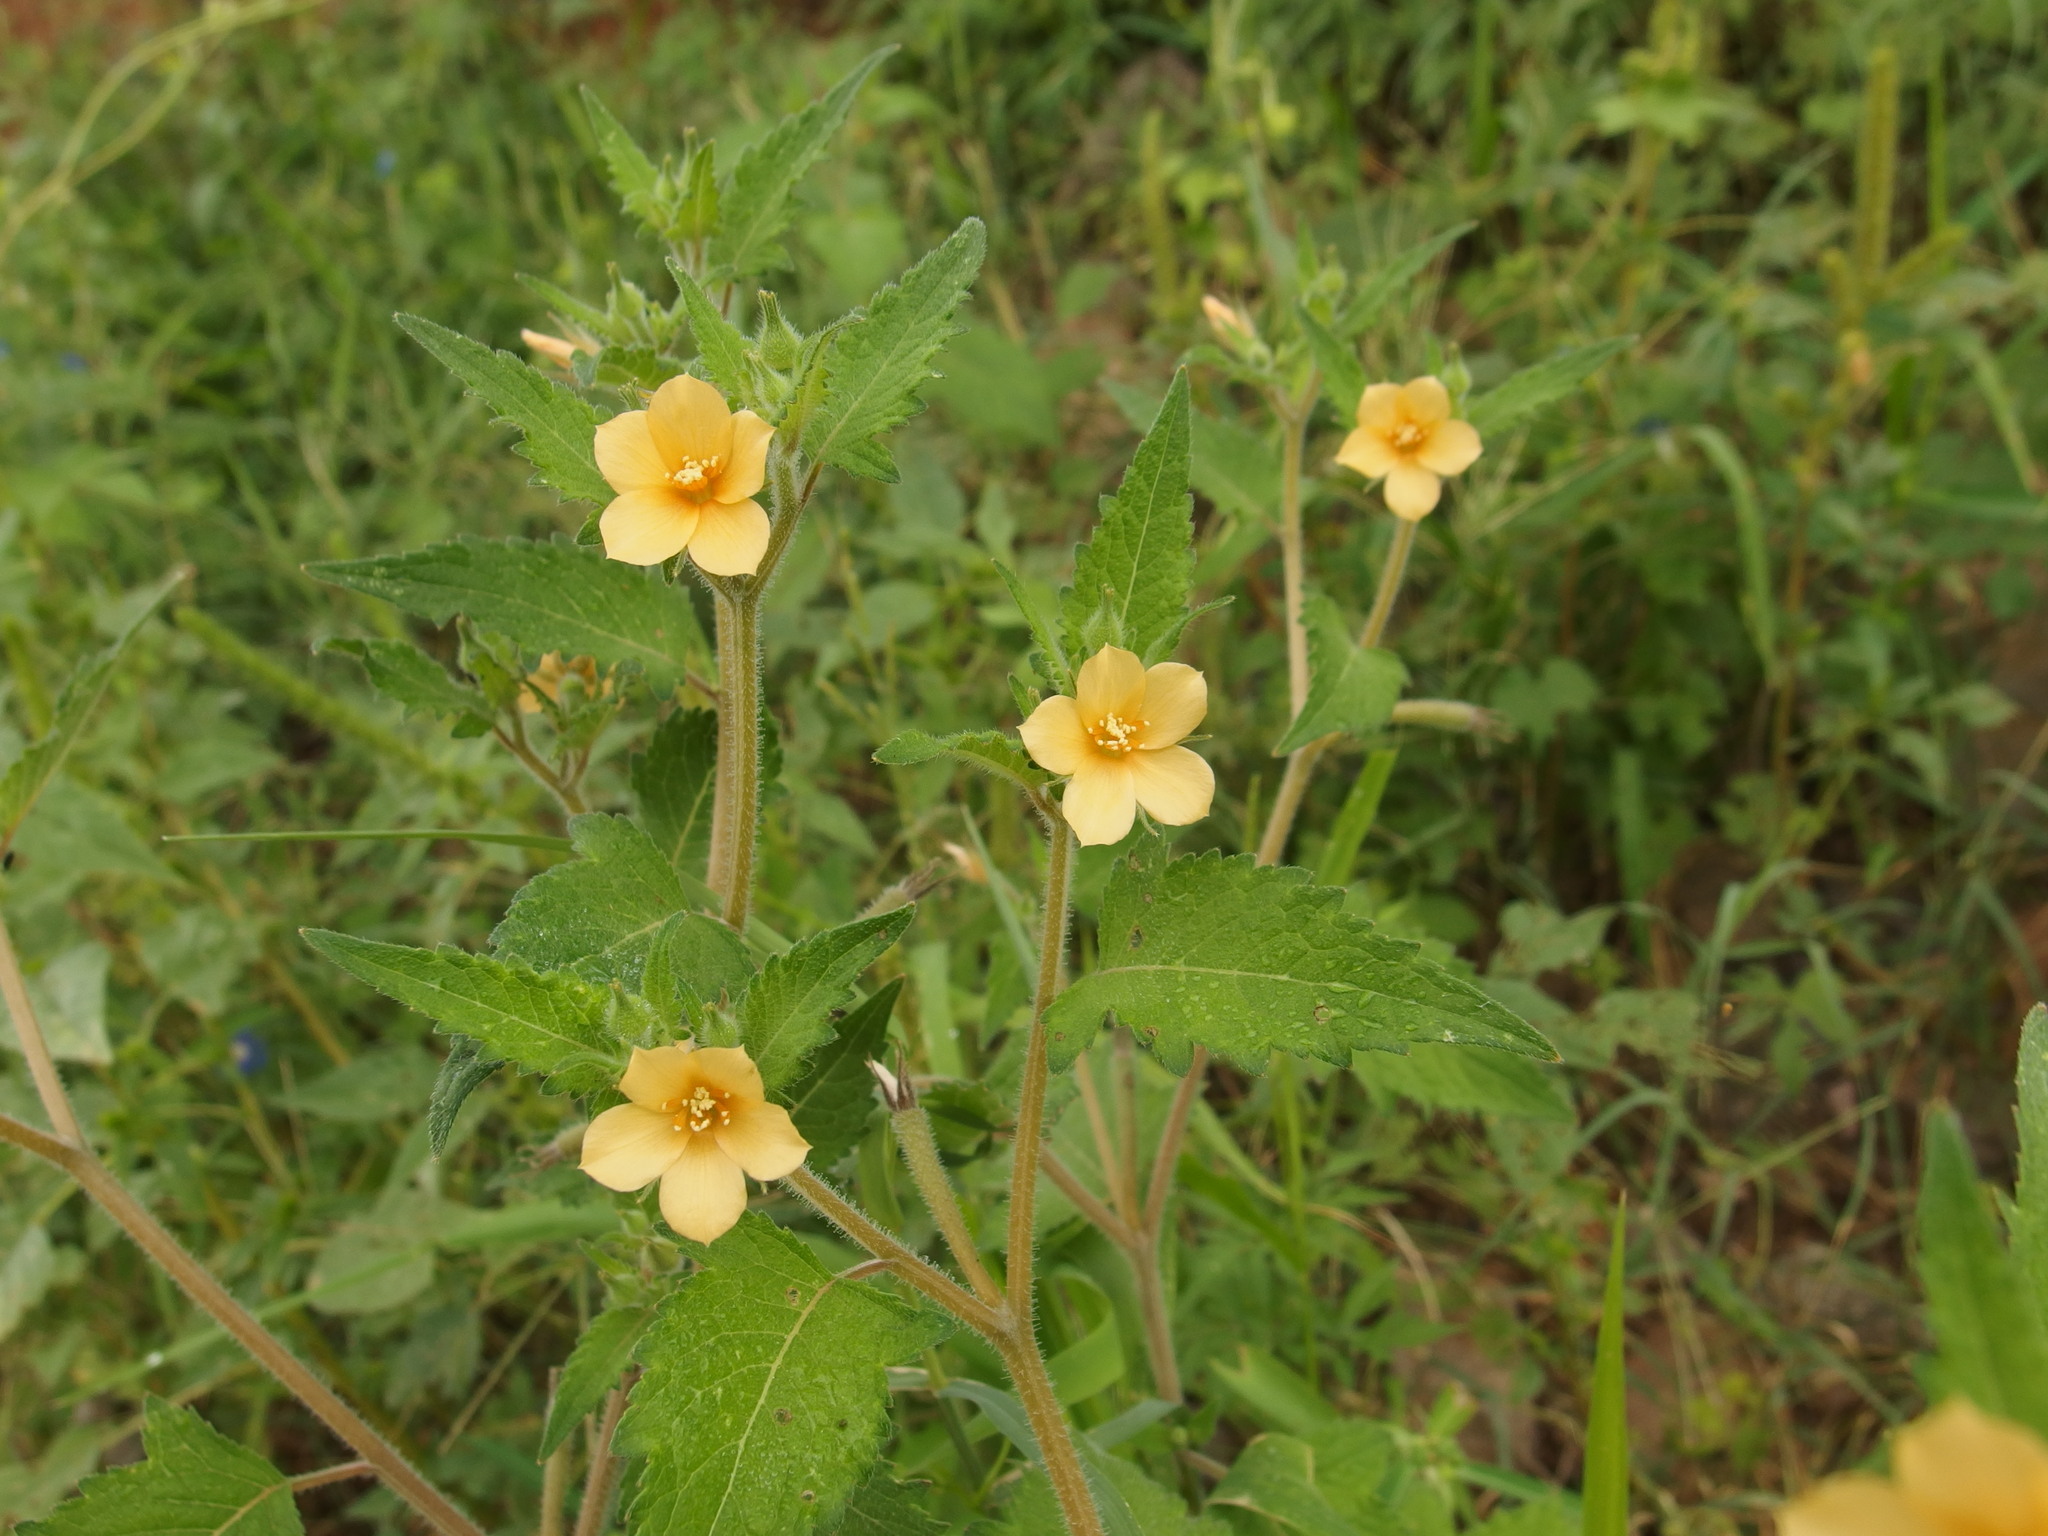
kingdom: Plantae
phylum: Tracheophyta
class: Magnoliopsida
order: Cornales
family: Loasaceae
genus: Mentzelia
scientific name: Mentzelia aspera
